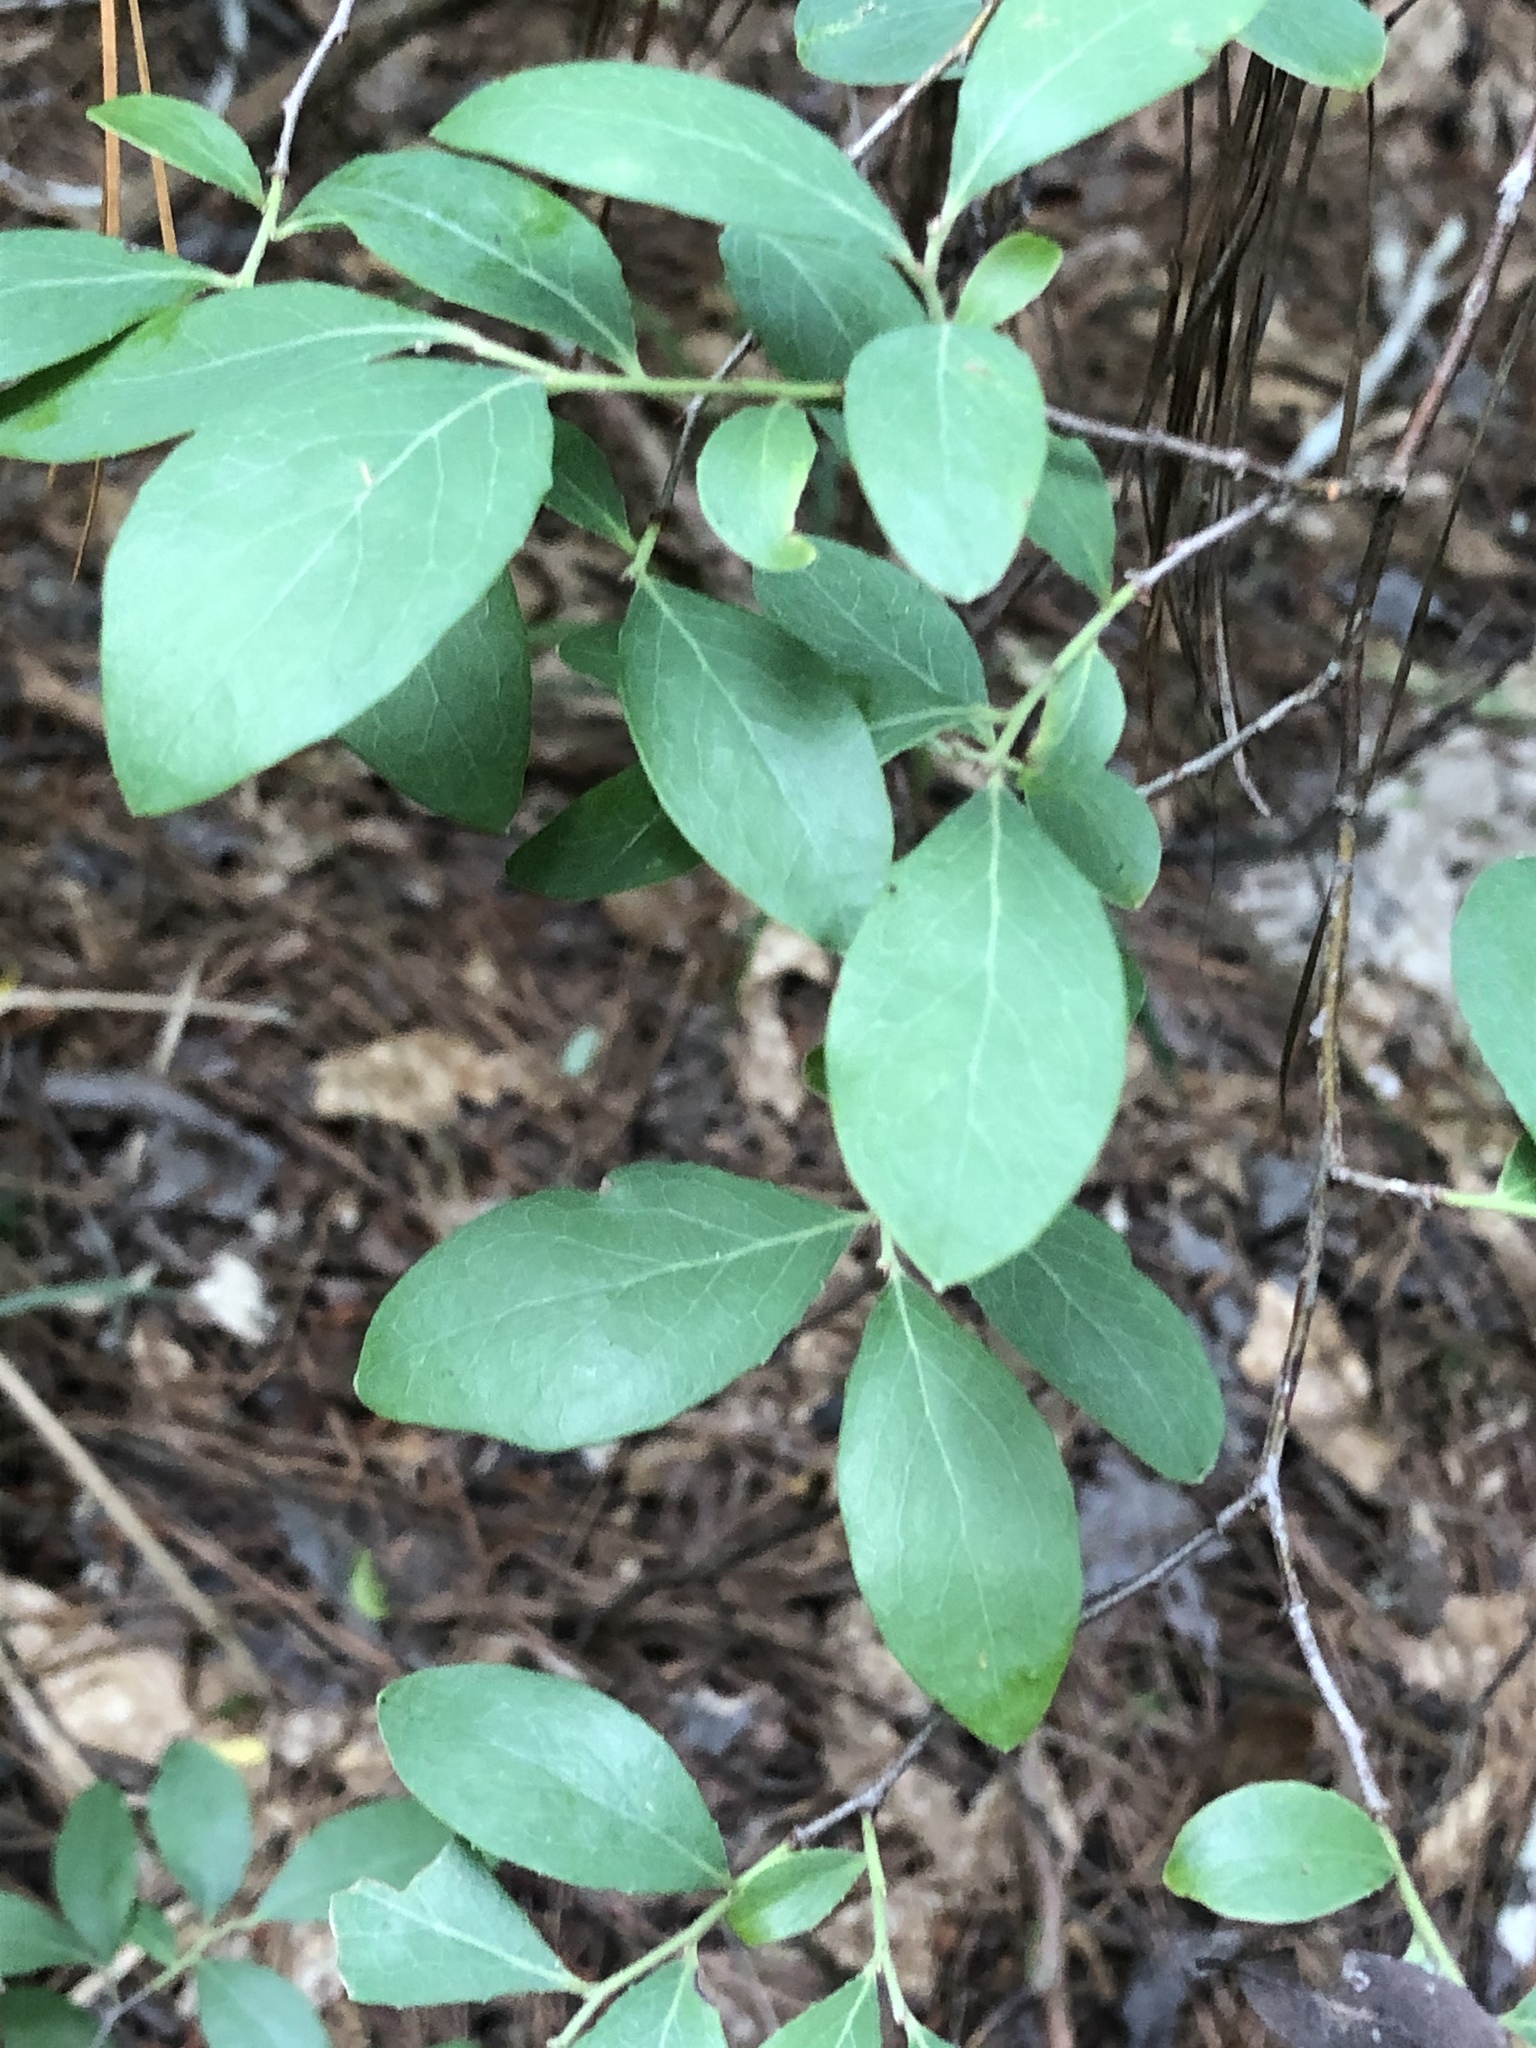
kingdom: Plantae
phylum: Tracheophyta
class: Magnoliopsida
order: Ericales
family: Ericaceae
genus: Vaccinium
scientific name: Vaccinium arboreum
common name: Farkleberry
